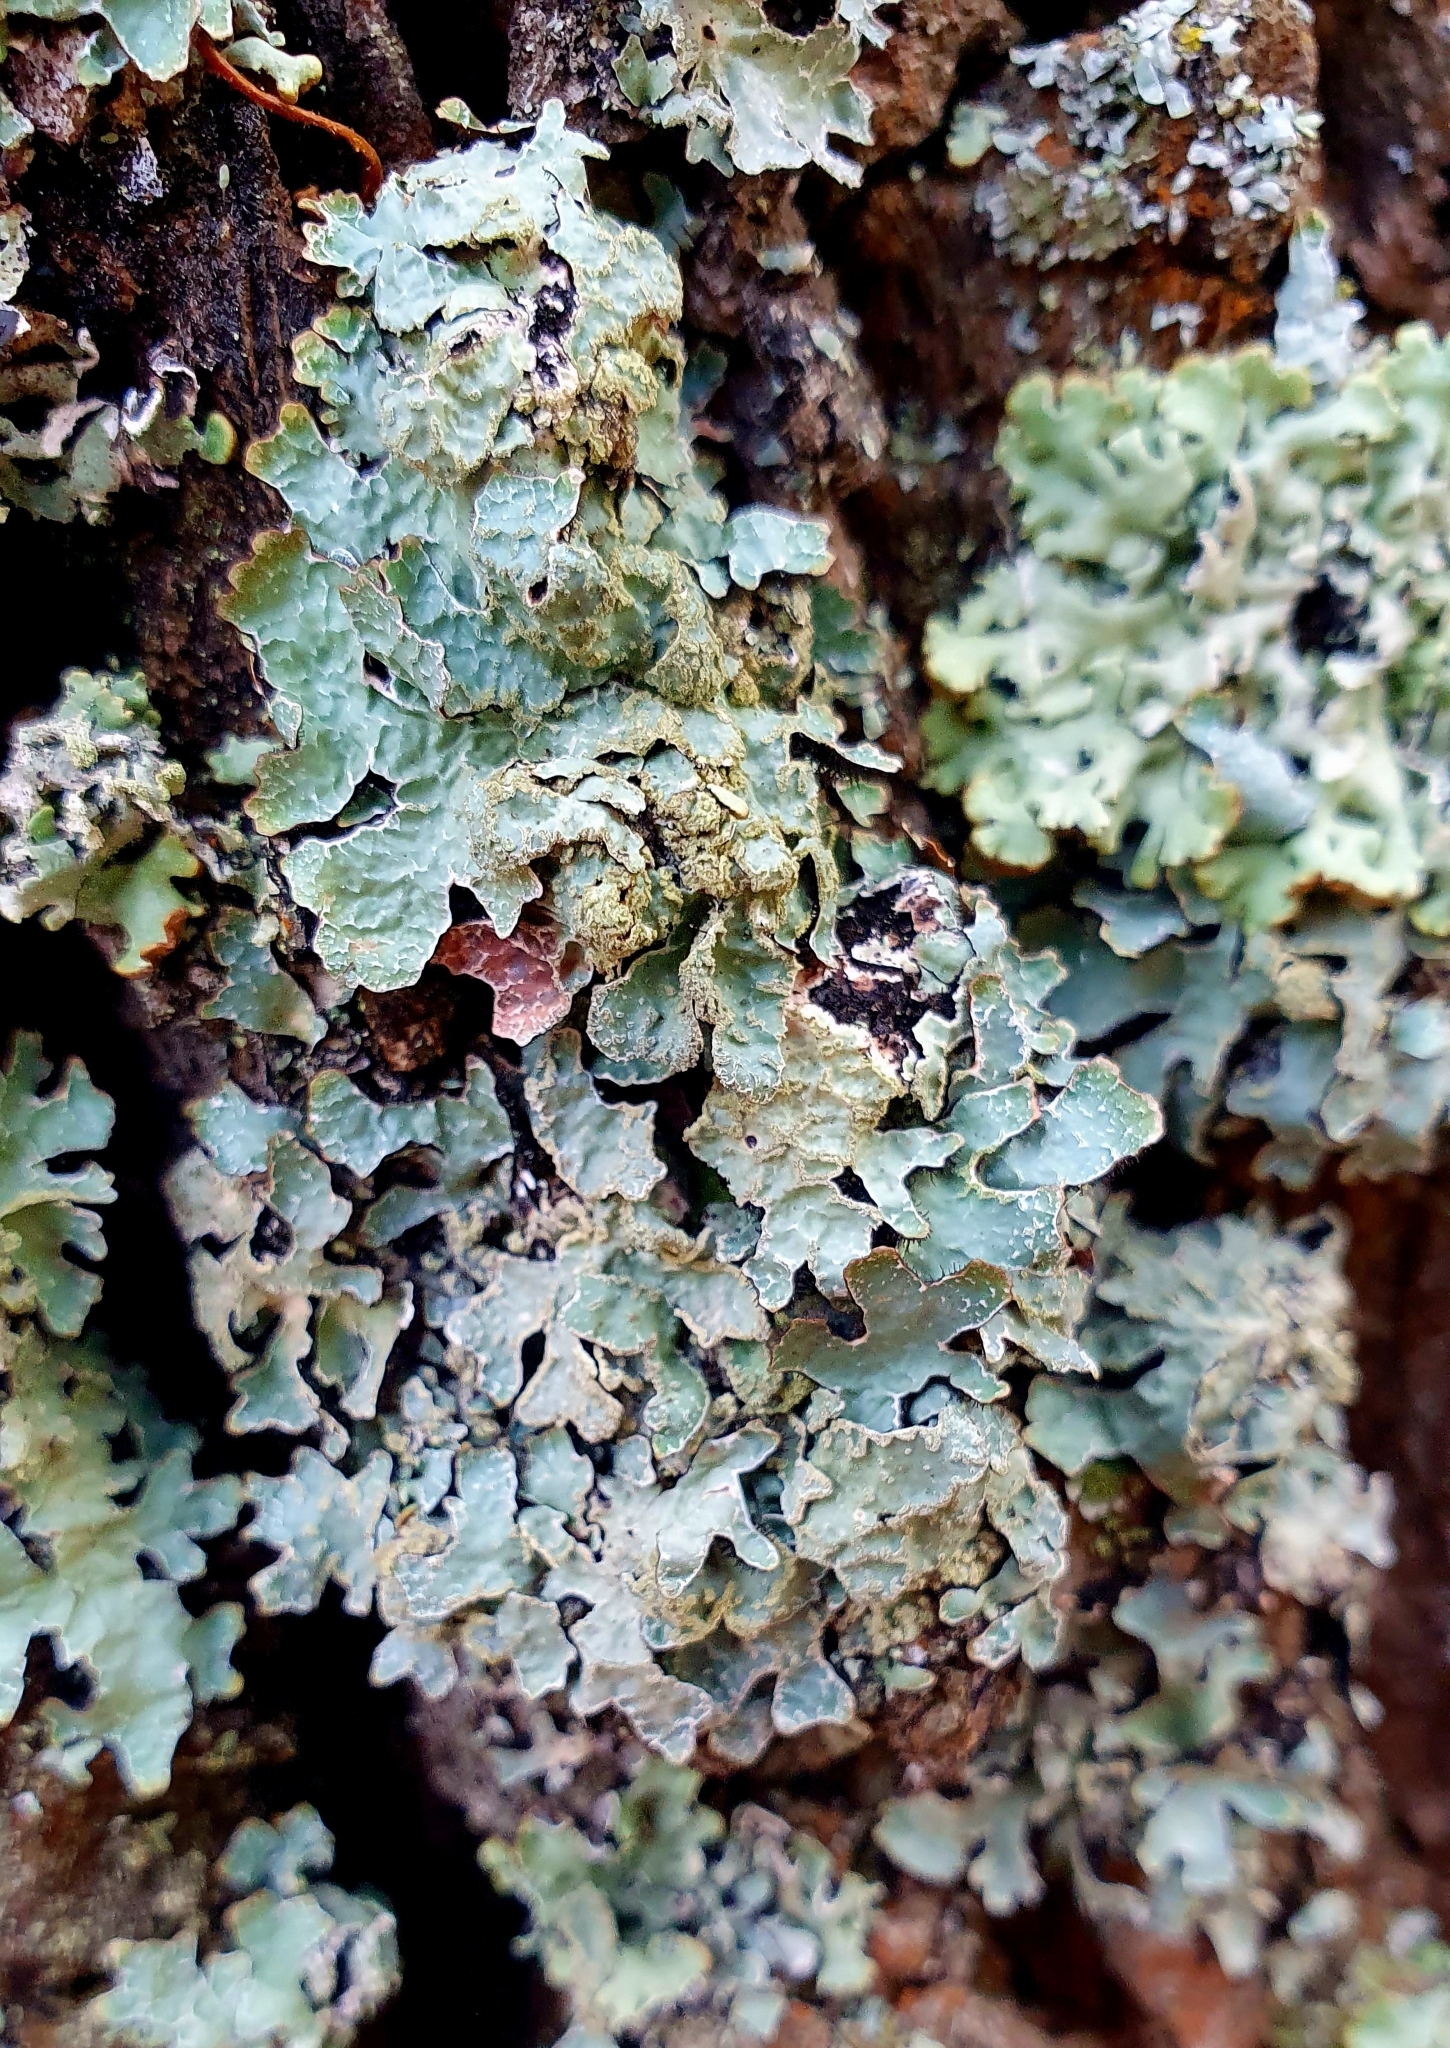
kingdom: Fungi
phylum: Ascomycota
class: Lecanoromycetes
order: Lecanorales
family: Parmeliaceae
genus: Parmelia
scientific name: Parmelia sulcata
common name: Netted shield lichen
